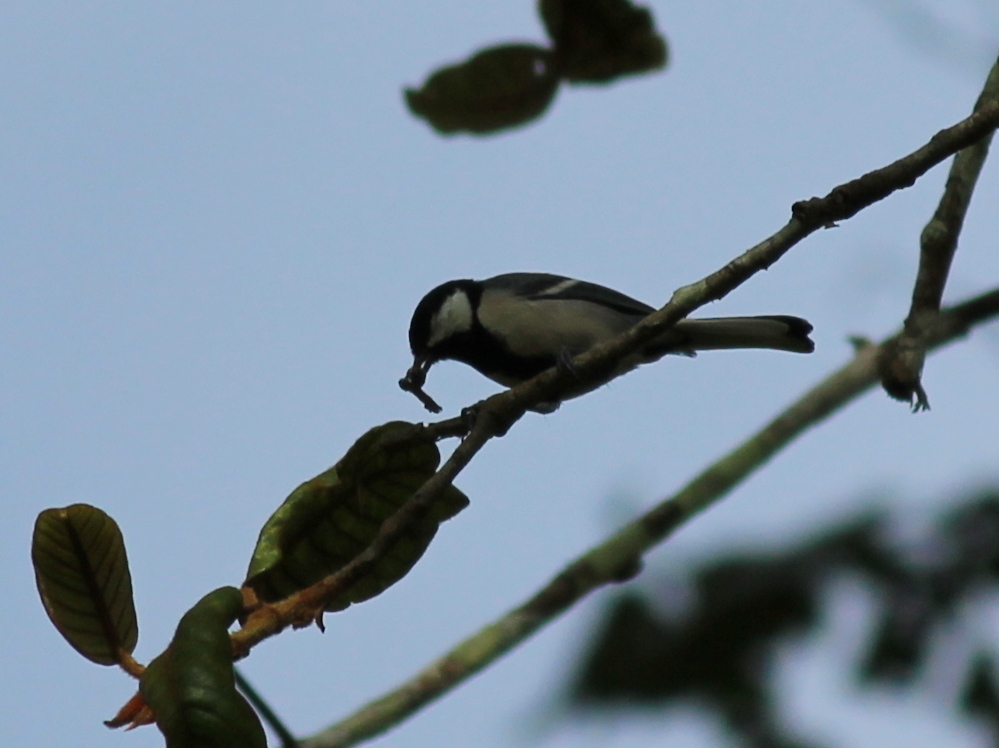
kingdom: Animalia
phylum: Chordata
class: Aves
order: Passeriformes
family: Paridae
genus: Parus
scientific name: Parus cinereus
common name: Cinereous tit
